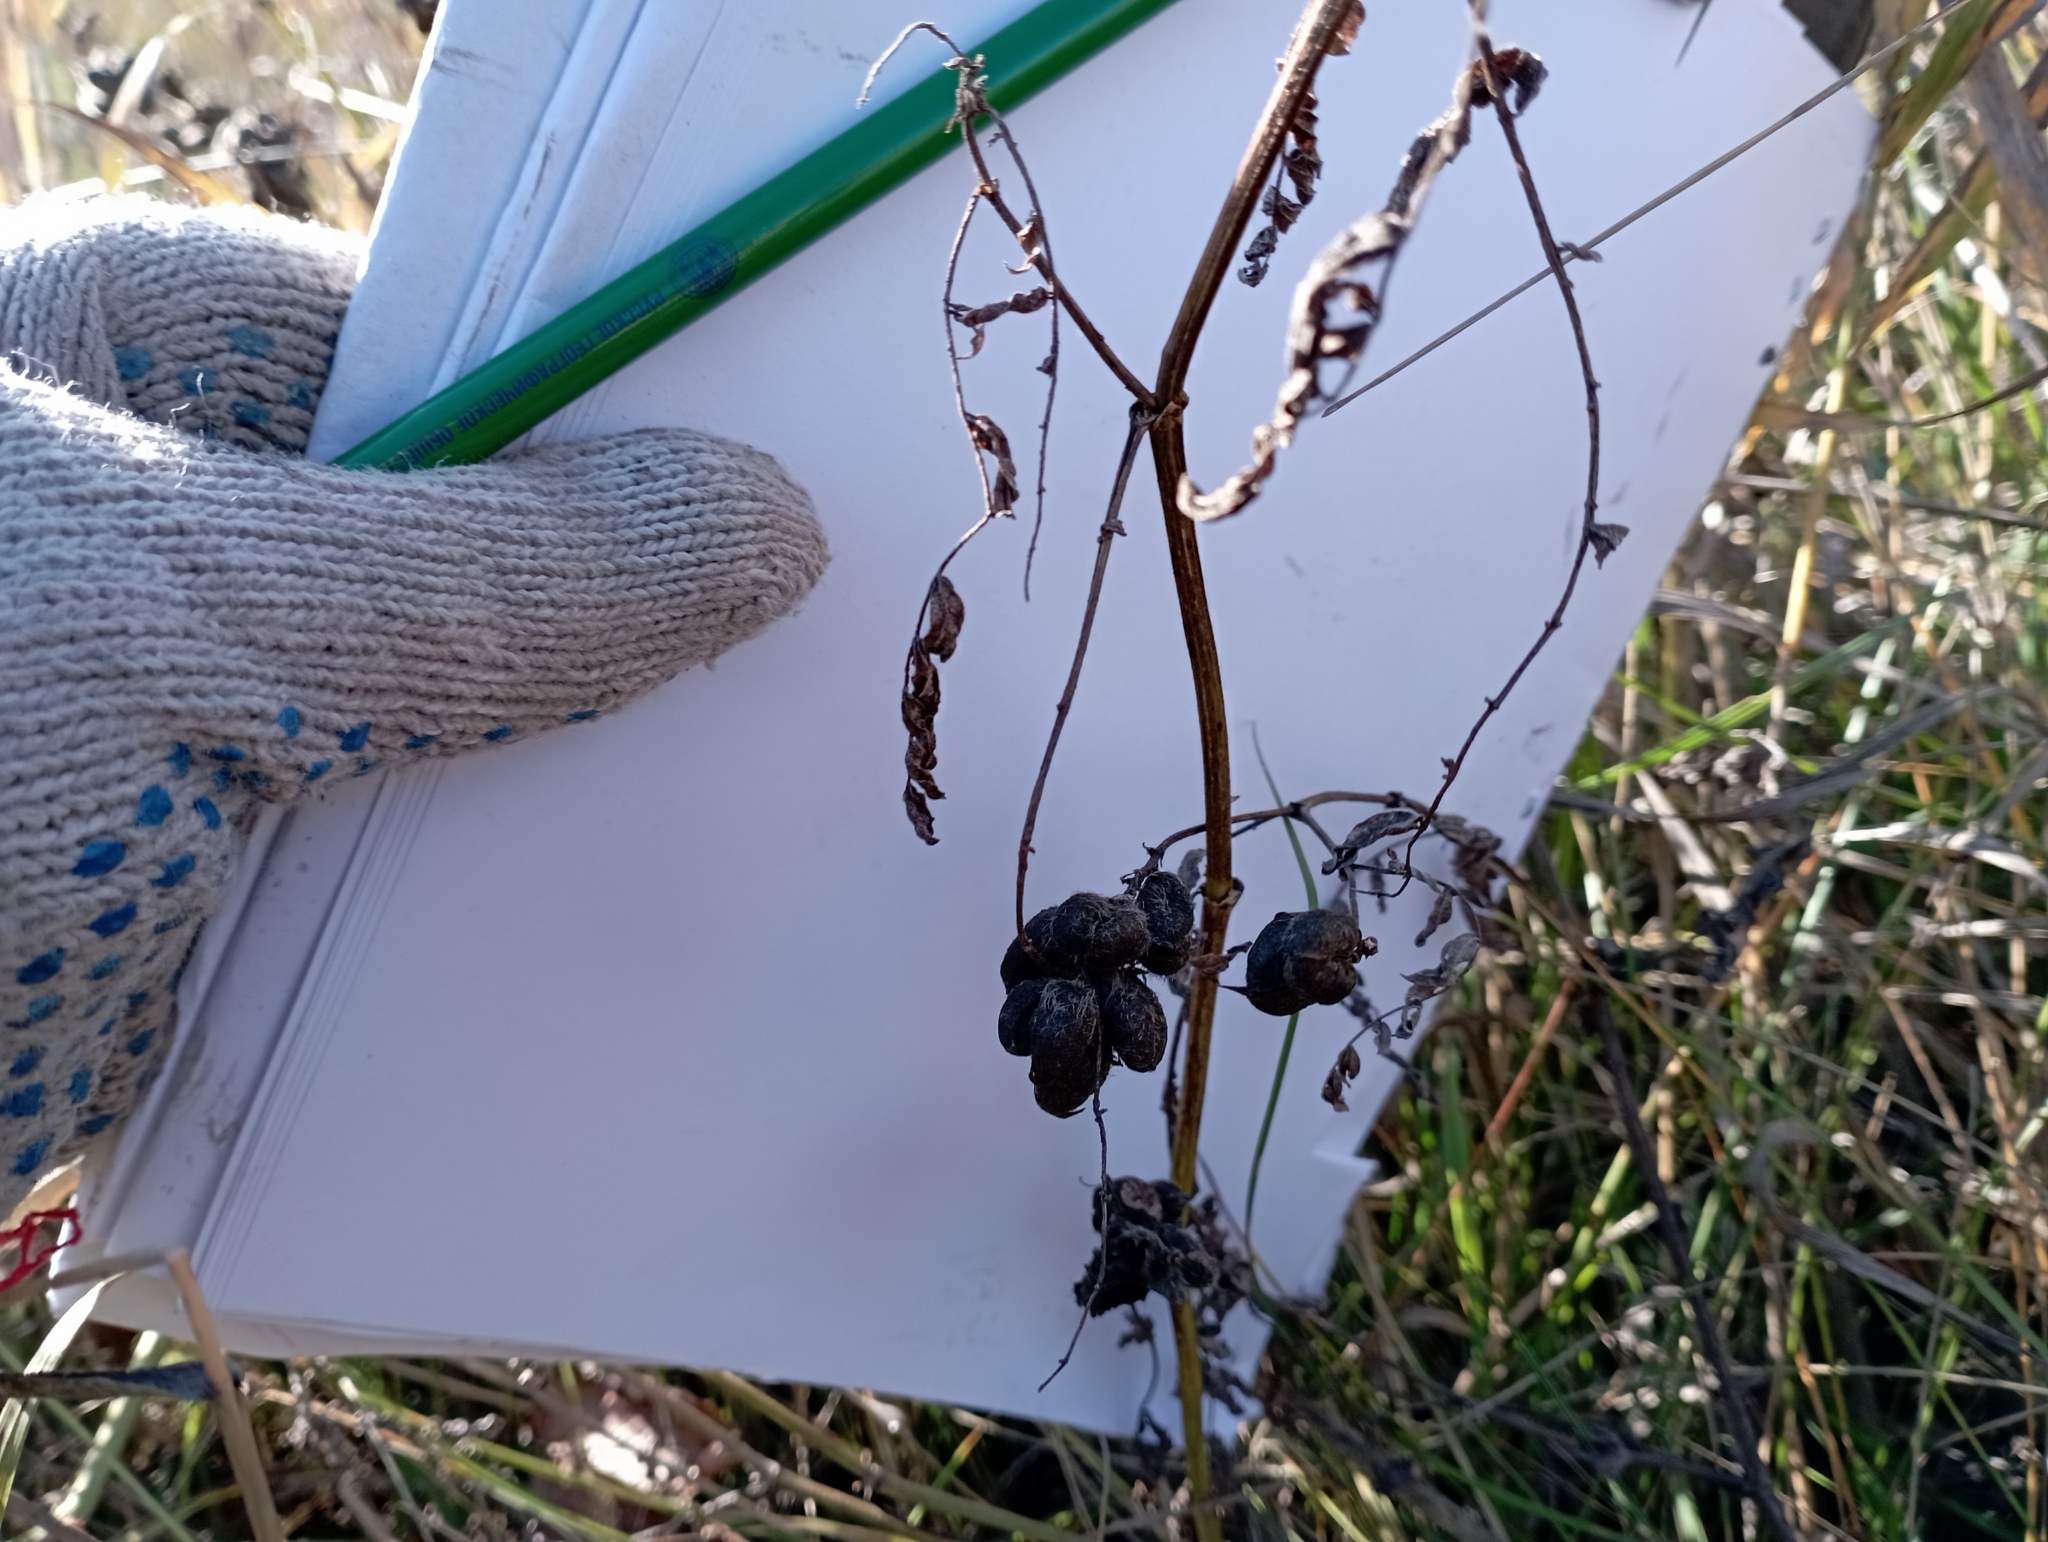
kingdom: Plantae
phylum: Tracheophyta
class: Magnoliopsida
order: Fabales
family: Fabaceae
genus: Astragalus
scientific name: Astragalus cicer
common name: Chick-pea milk-vetch
